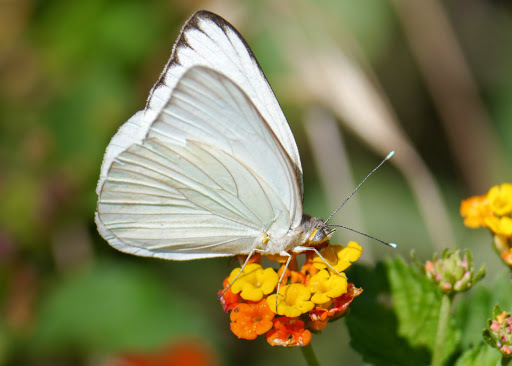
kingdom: Animalia
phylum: Arthropoda
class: Insecta
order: Lepidoptera
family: Pieridae
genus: Ascia
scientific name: Ascia monuste
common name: Great southern white
